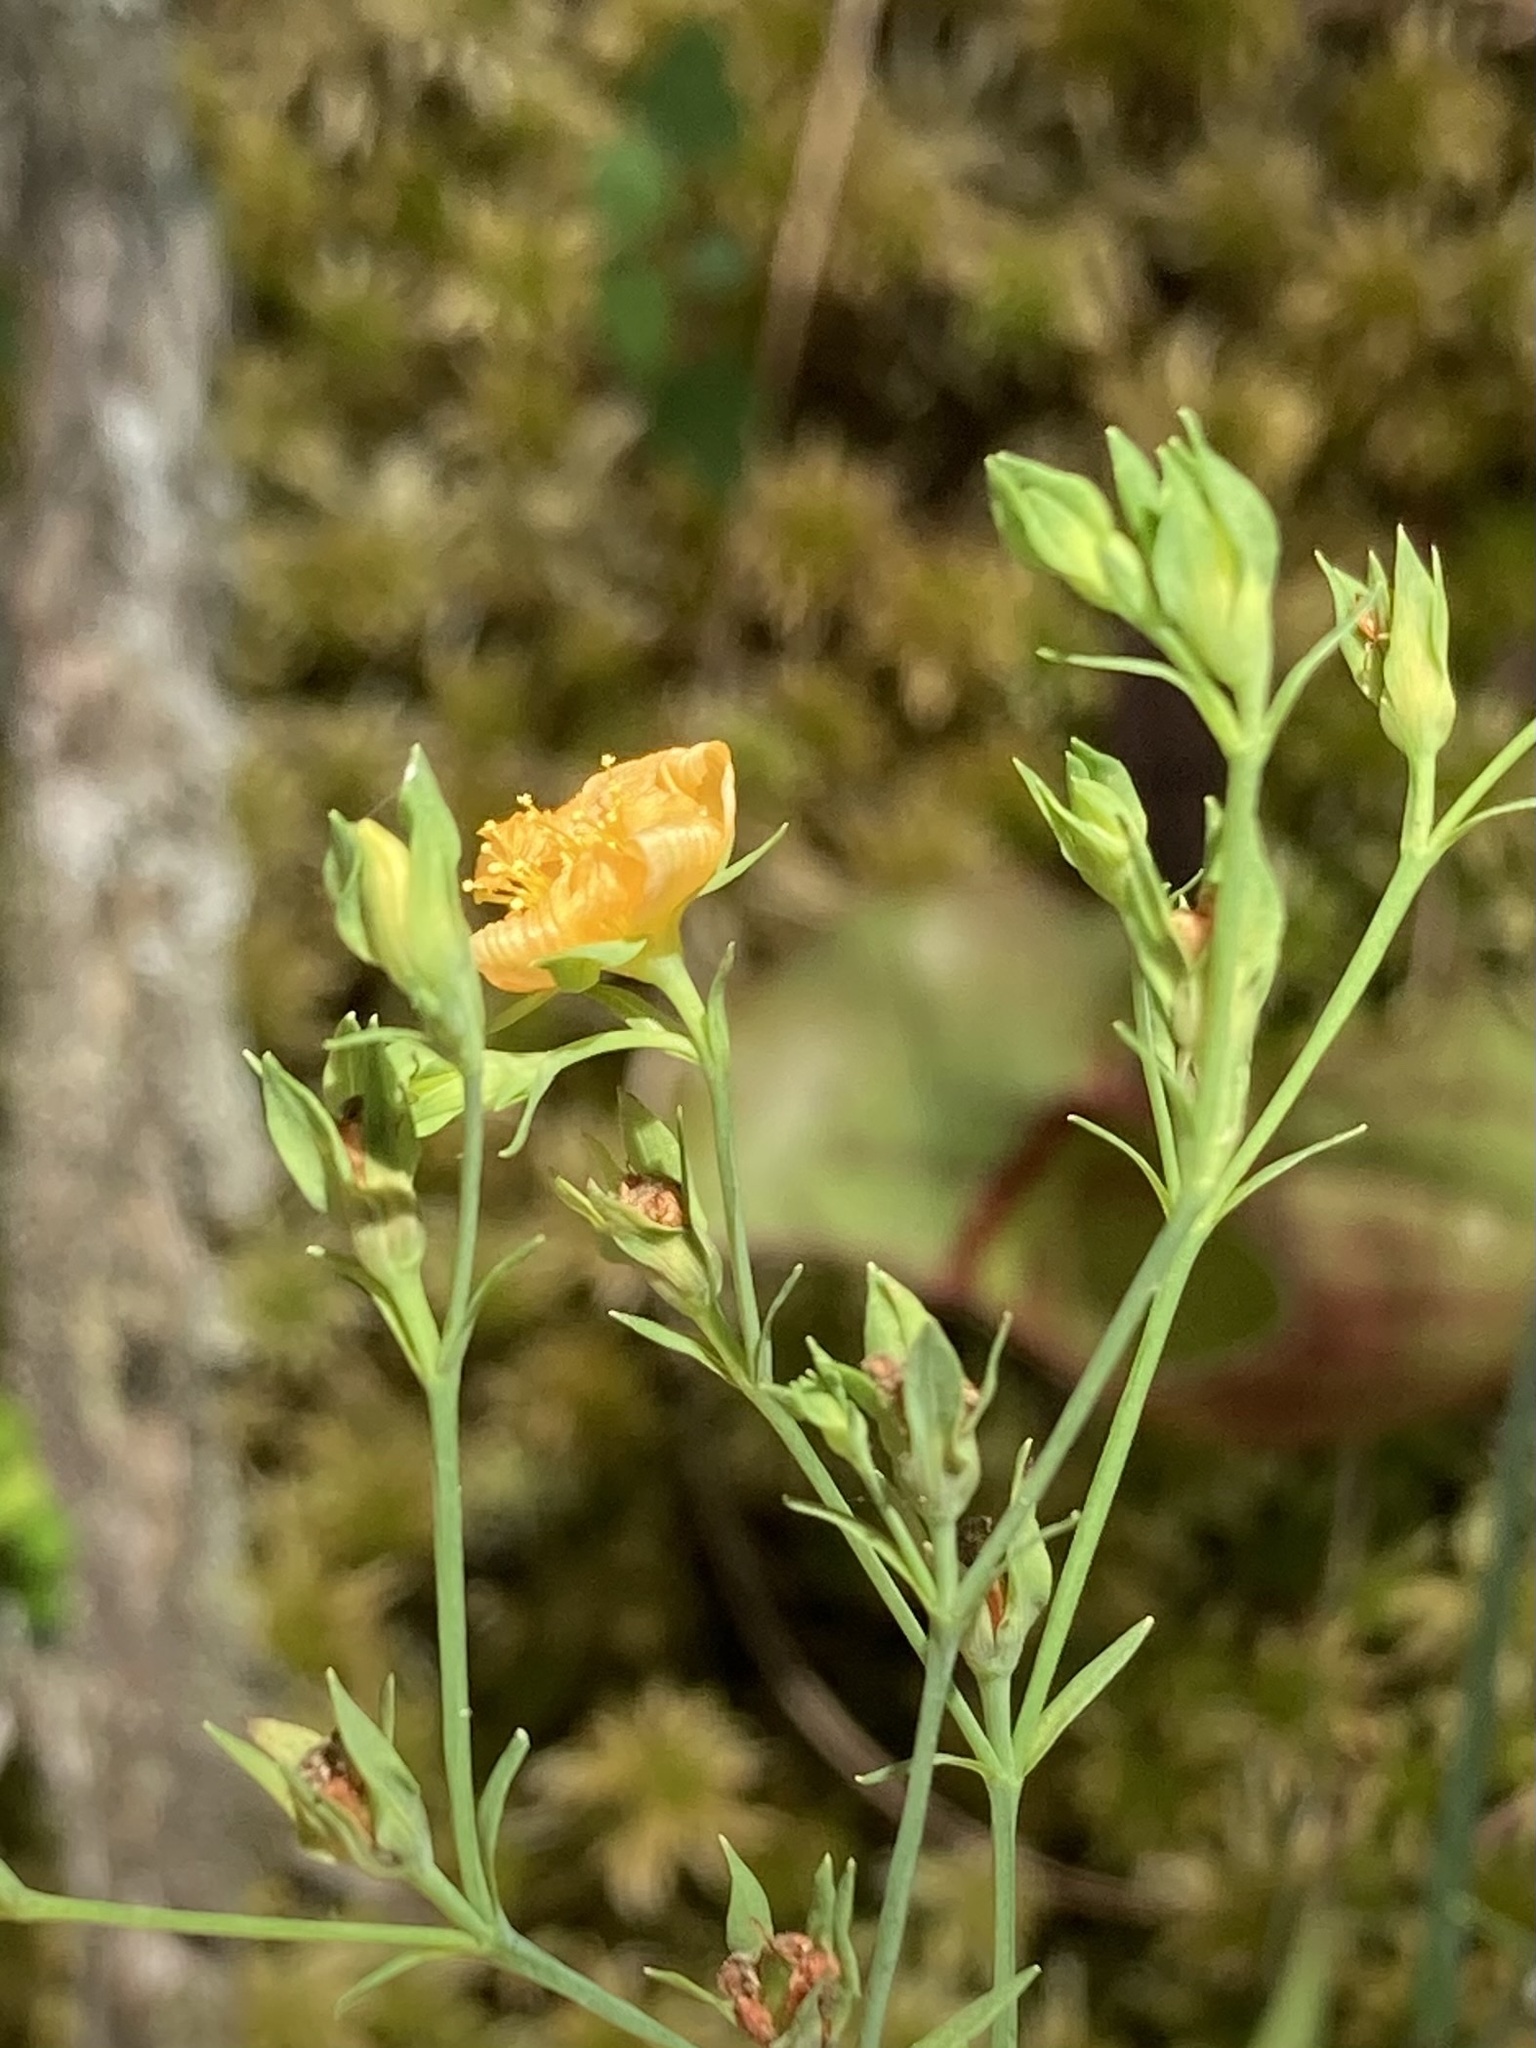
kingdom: Plantae
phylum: Tracheophyta
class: Magnoliopsida
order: Malpighiales
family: Hypericaceae
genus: Hypericum
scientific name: Hypericum denticulatum
